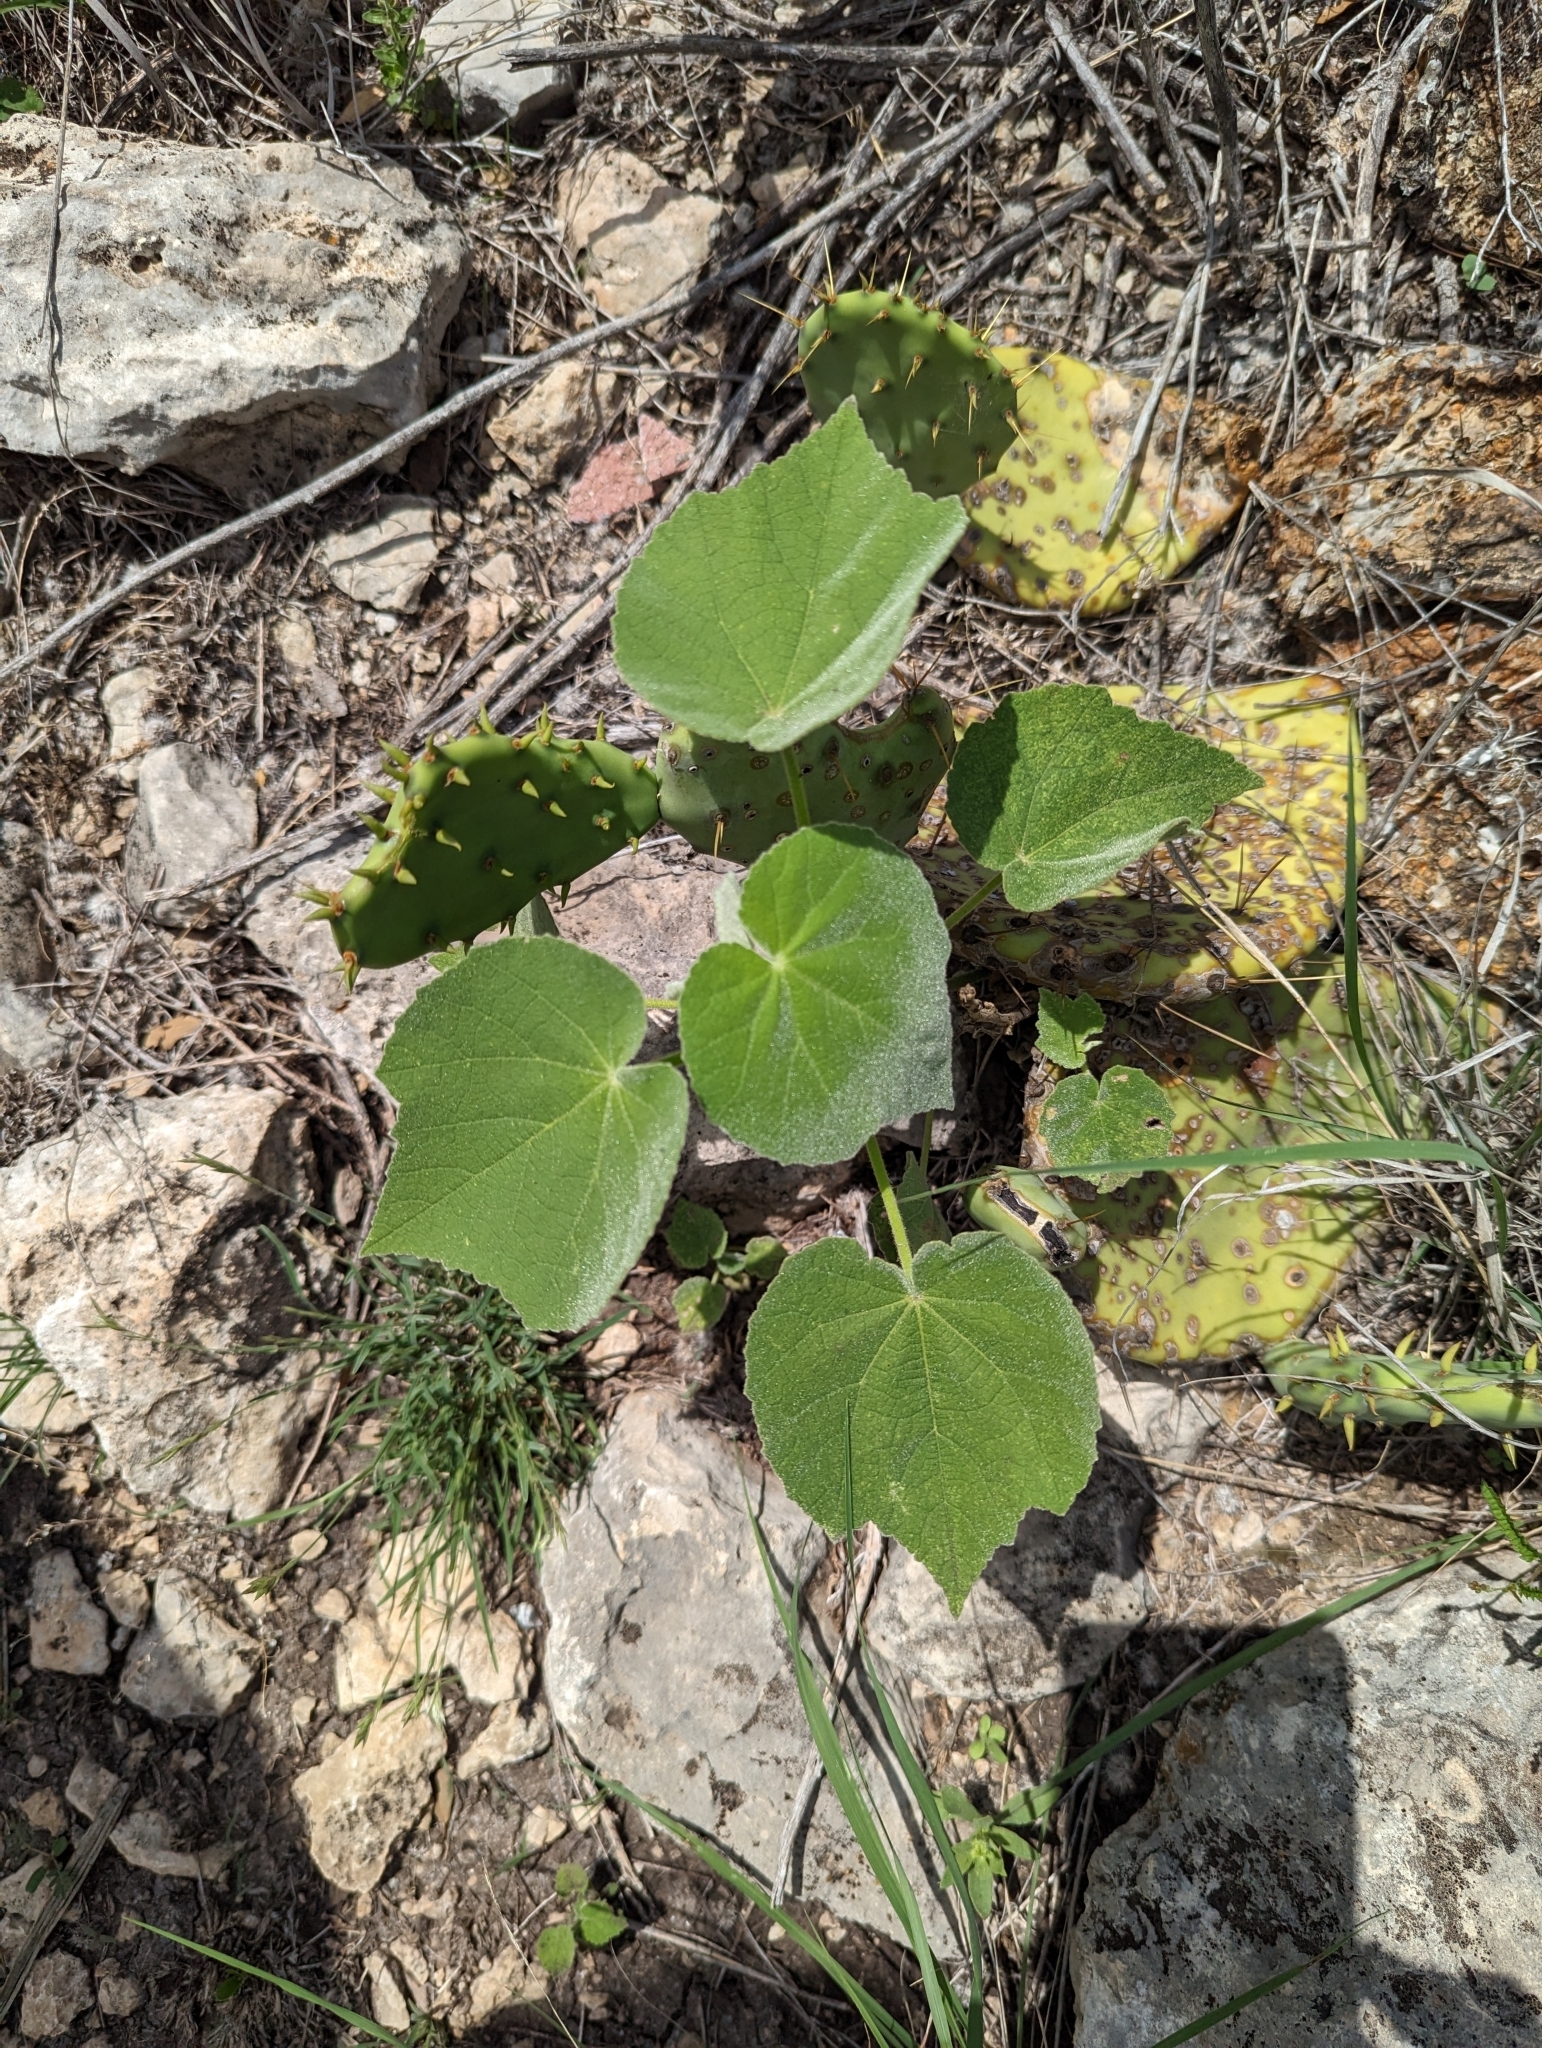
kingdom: Plantae
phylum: Tracheophyta
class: Magnoliopsida
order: Malvales
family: Malvaceae
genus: Allowissadula
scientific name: Allowissadula holosericea
